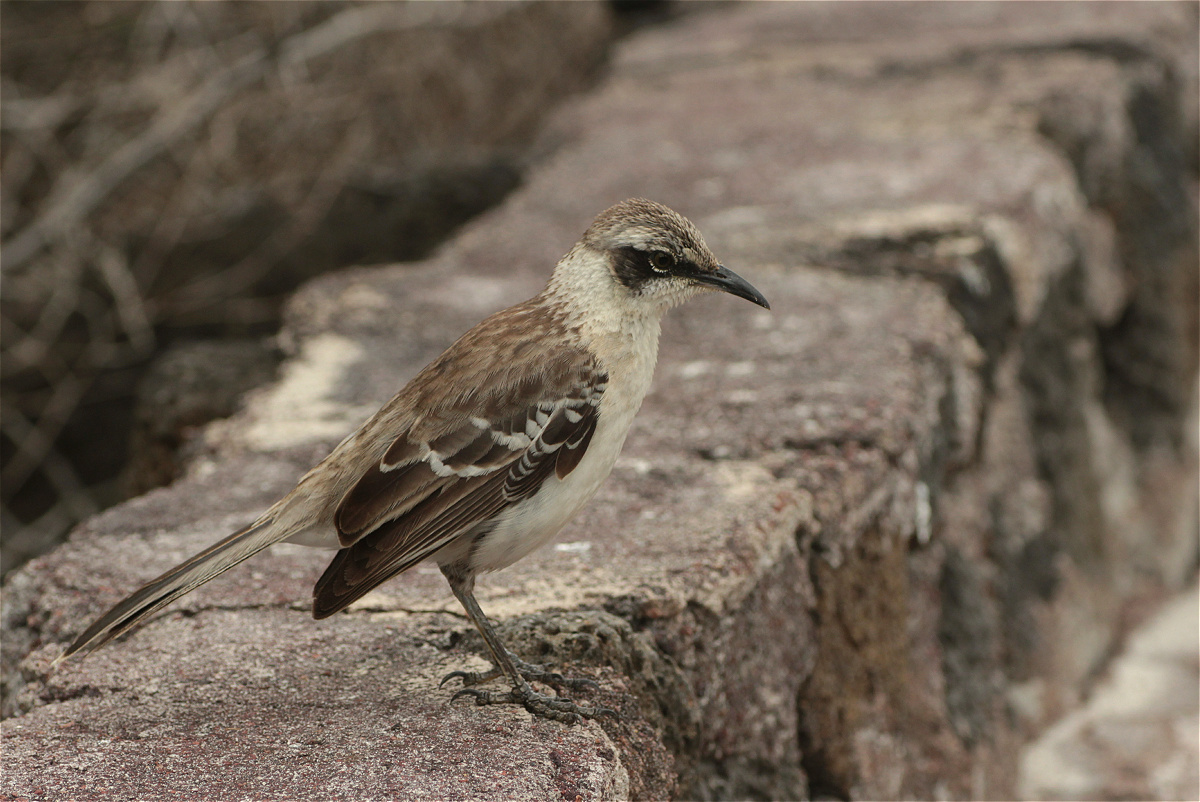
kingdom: Animalia
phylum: Chordata
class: Aves
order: Passeriformes
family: Mimidae
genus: Mimus
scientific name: Mimus parvulus
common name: Galapagos mockingbird
